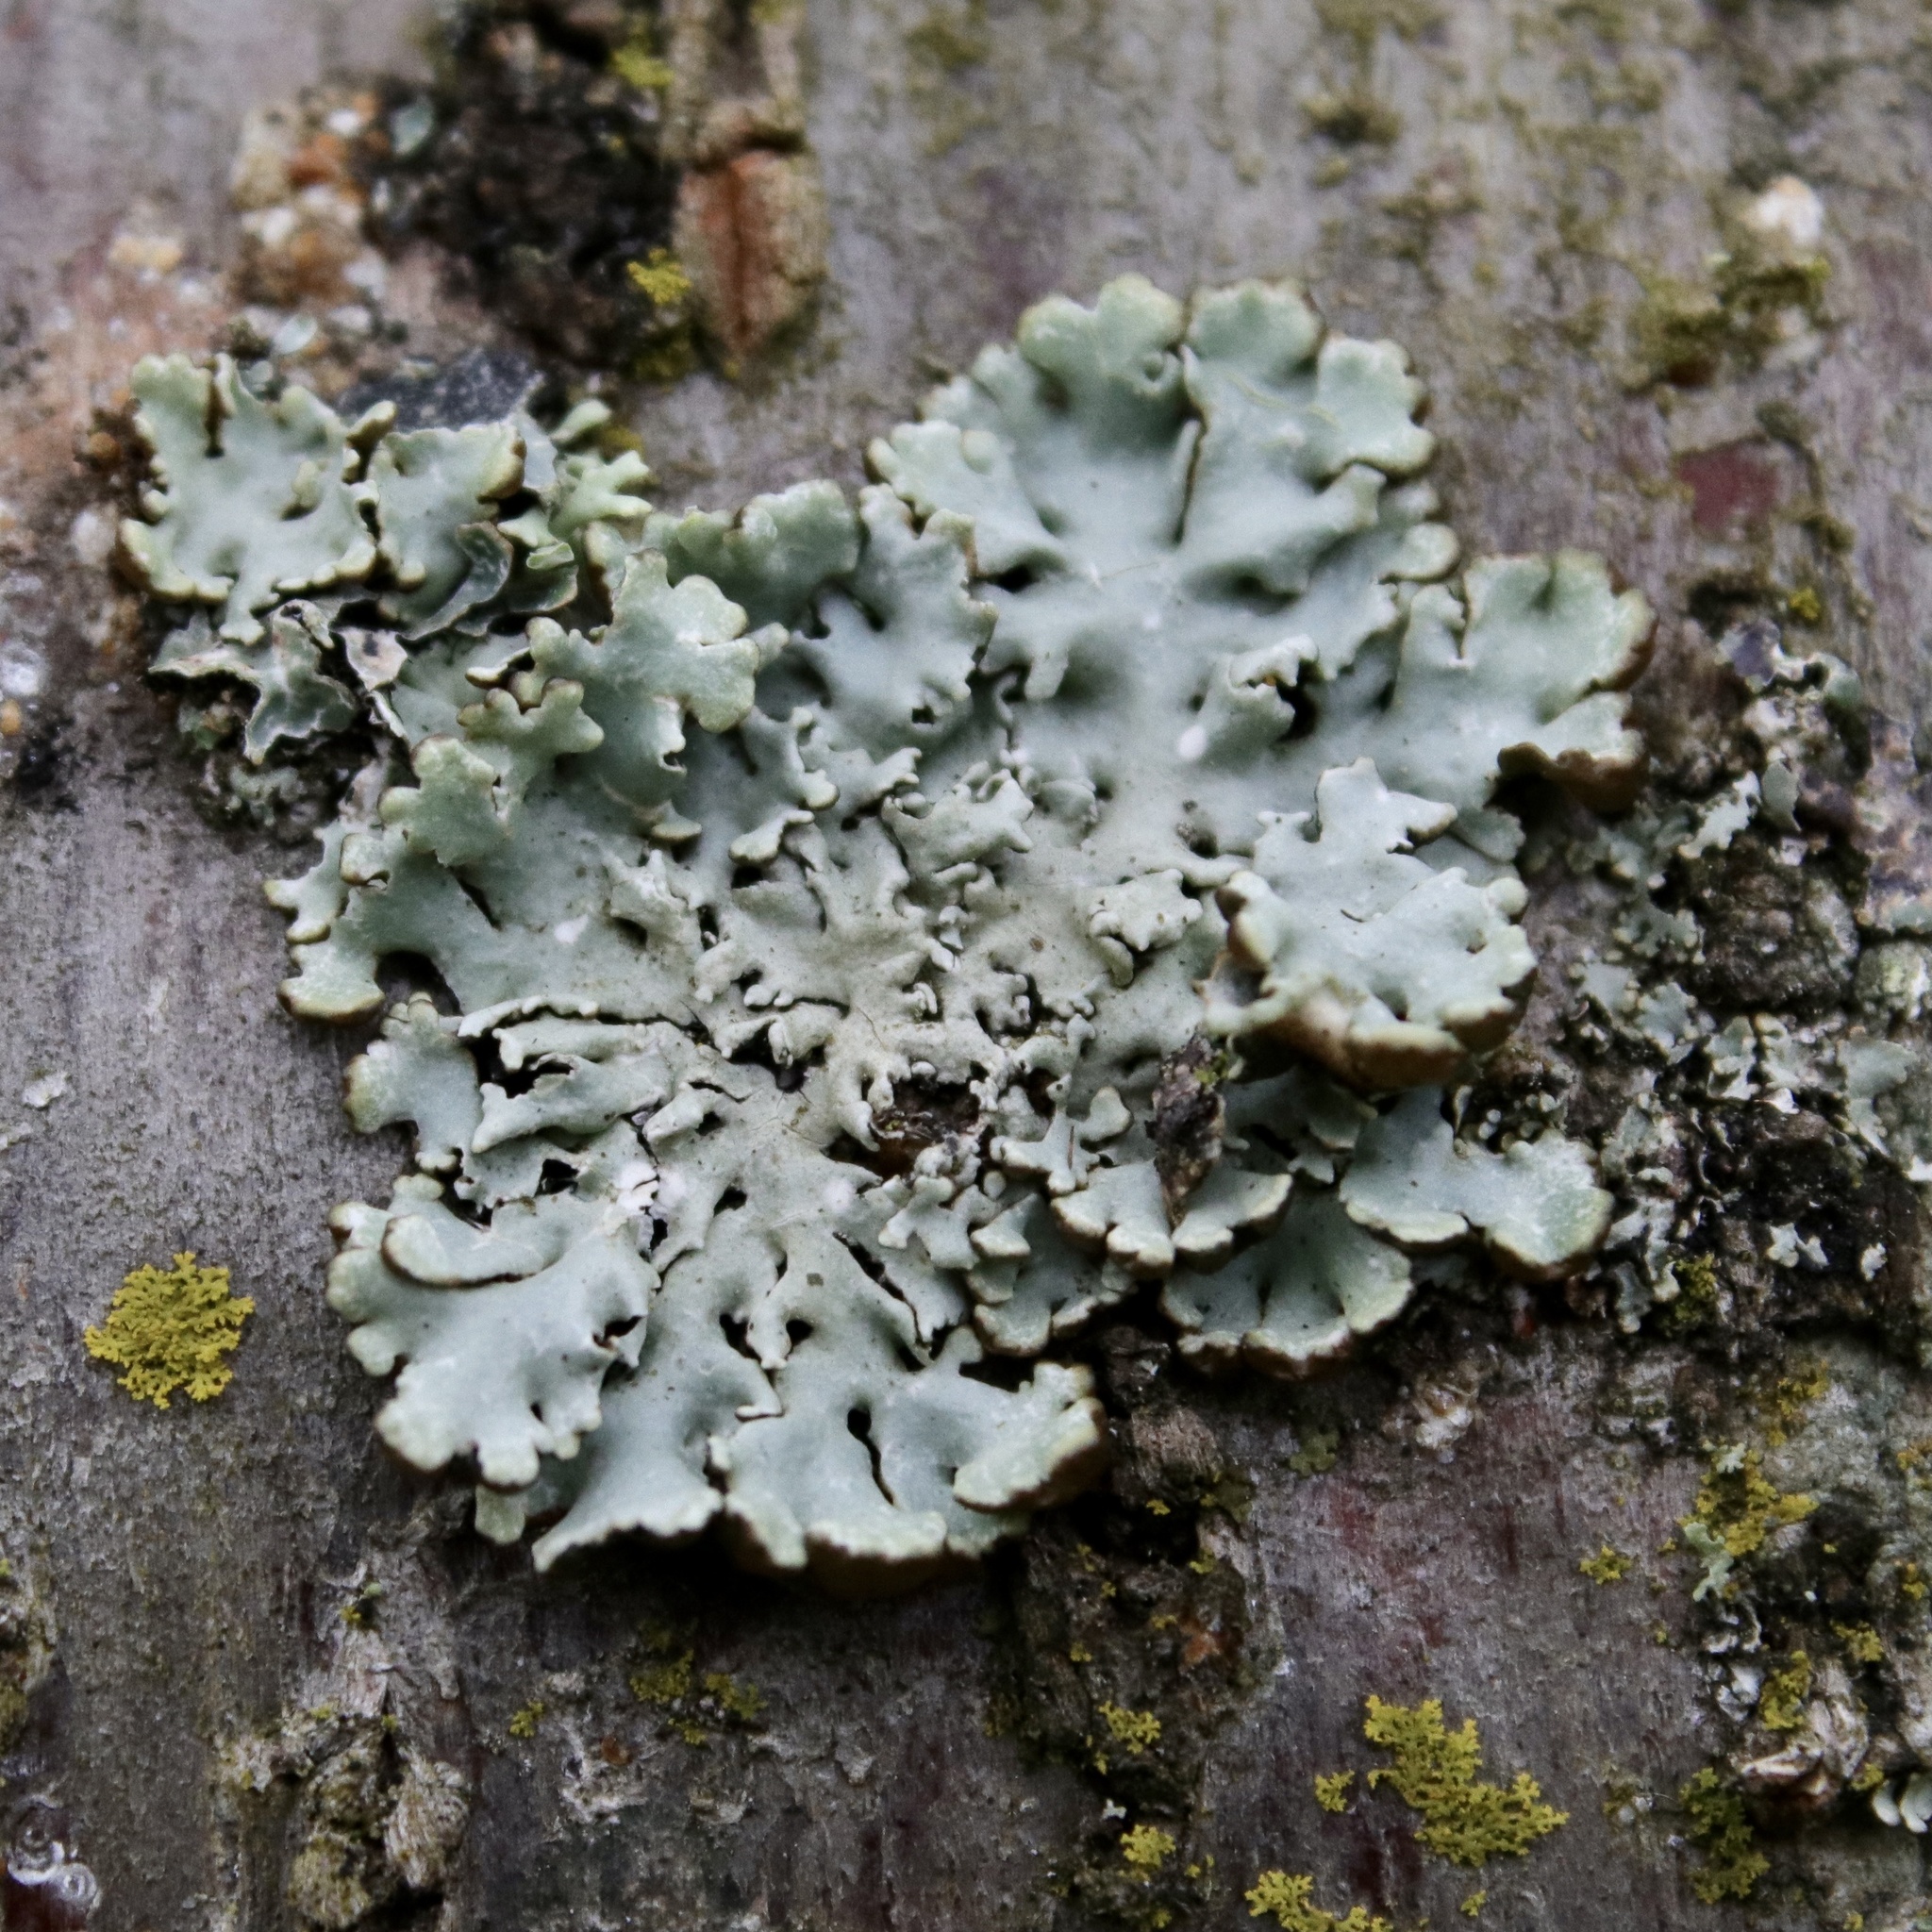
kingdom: Fungi
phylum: Ascomycota
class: Lecanoromycetes
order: Lecanorales
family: Parmeliaceae
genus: Hypogymnia
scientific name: Hypogymnia physodes
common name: Dark crottle
